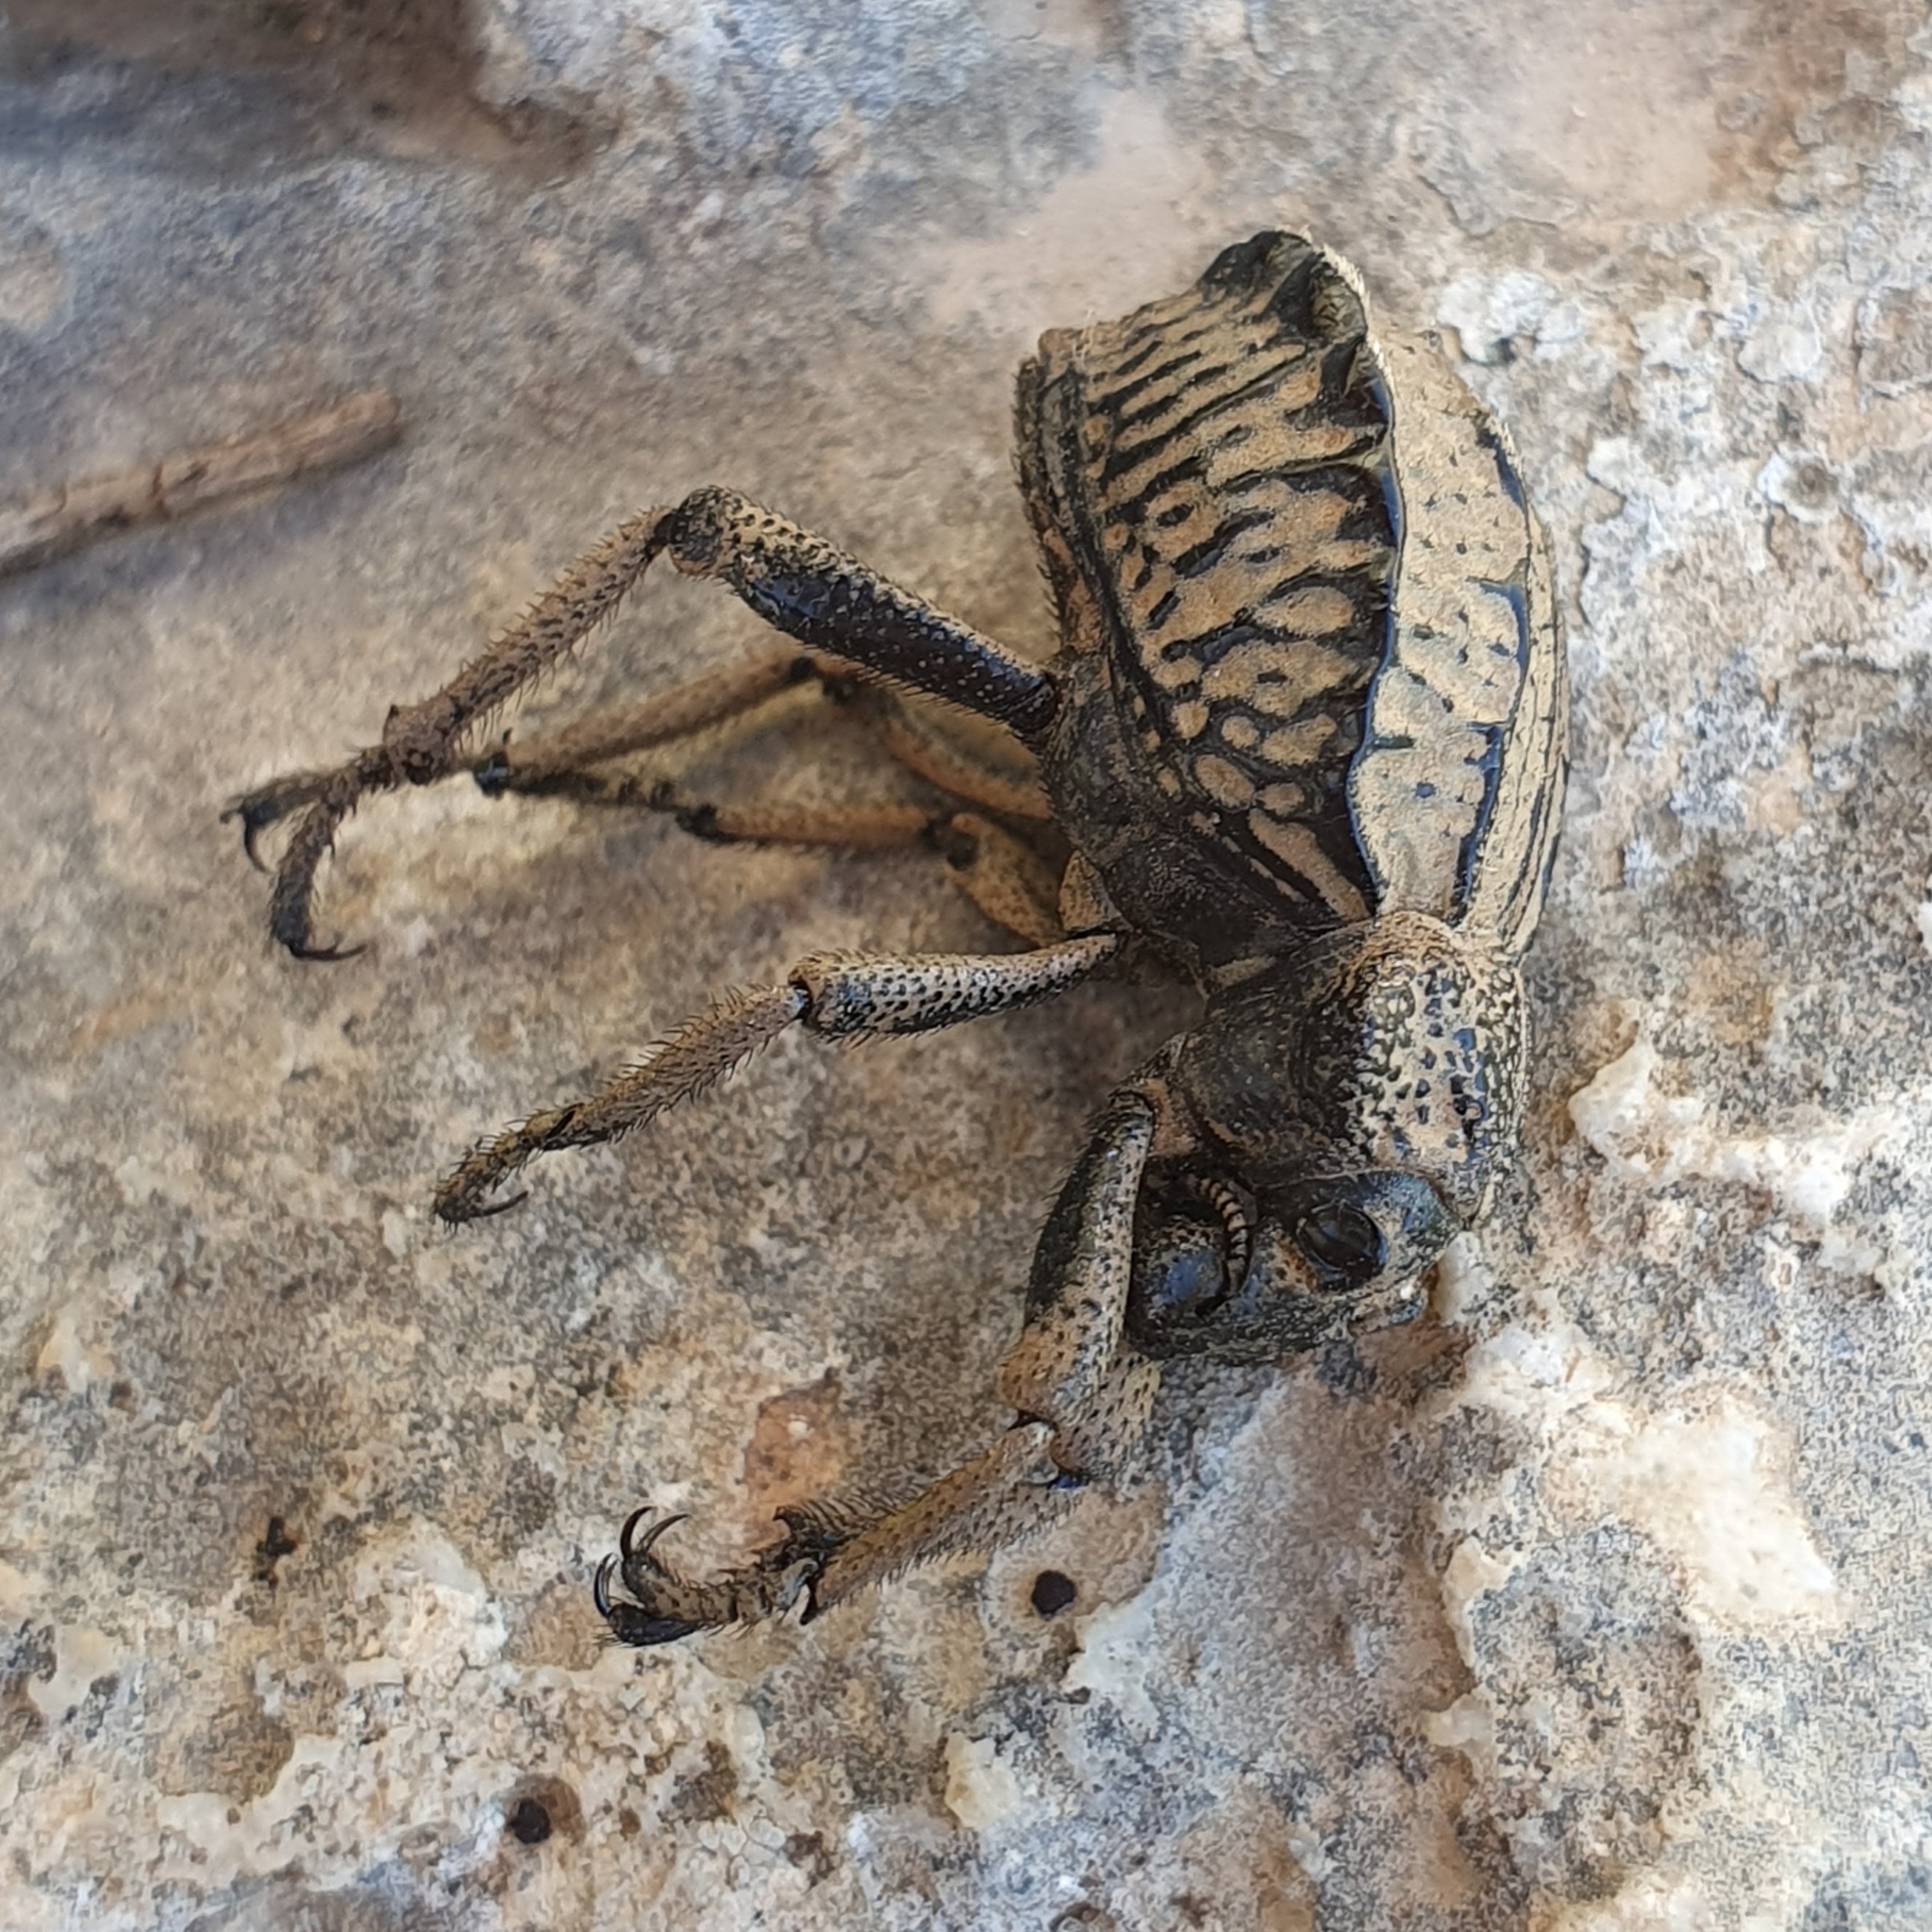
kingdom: Animalia
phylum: Arthropoda
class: Insecta
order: Coleoptera
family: Brachyceridae
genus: Brachycerus
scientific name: Brachycerus undatus
